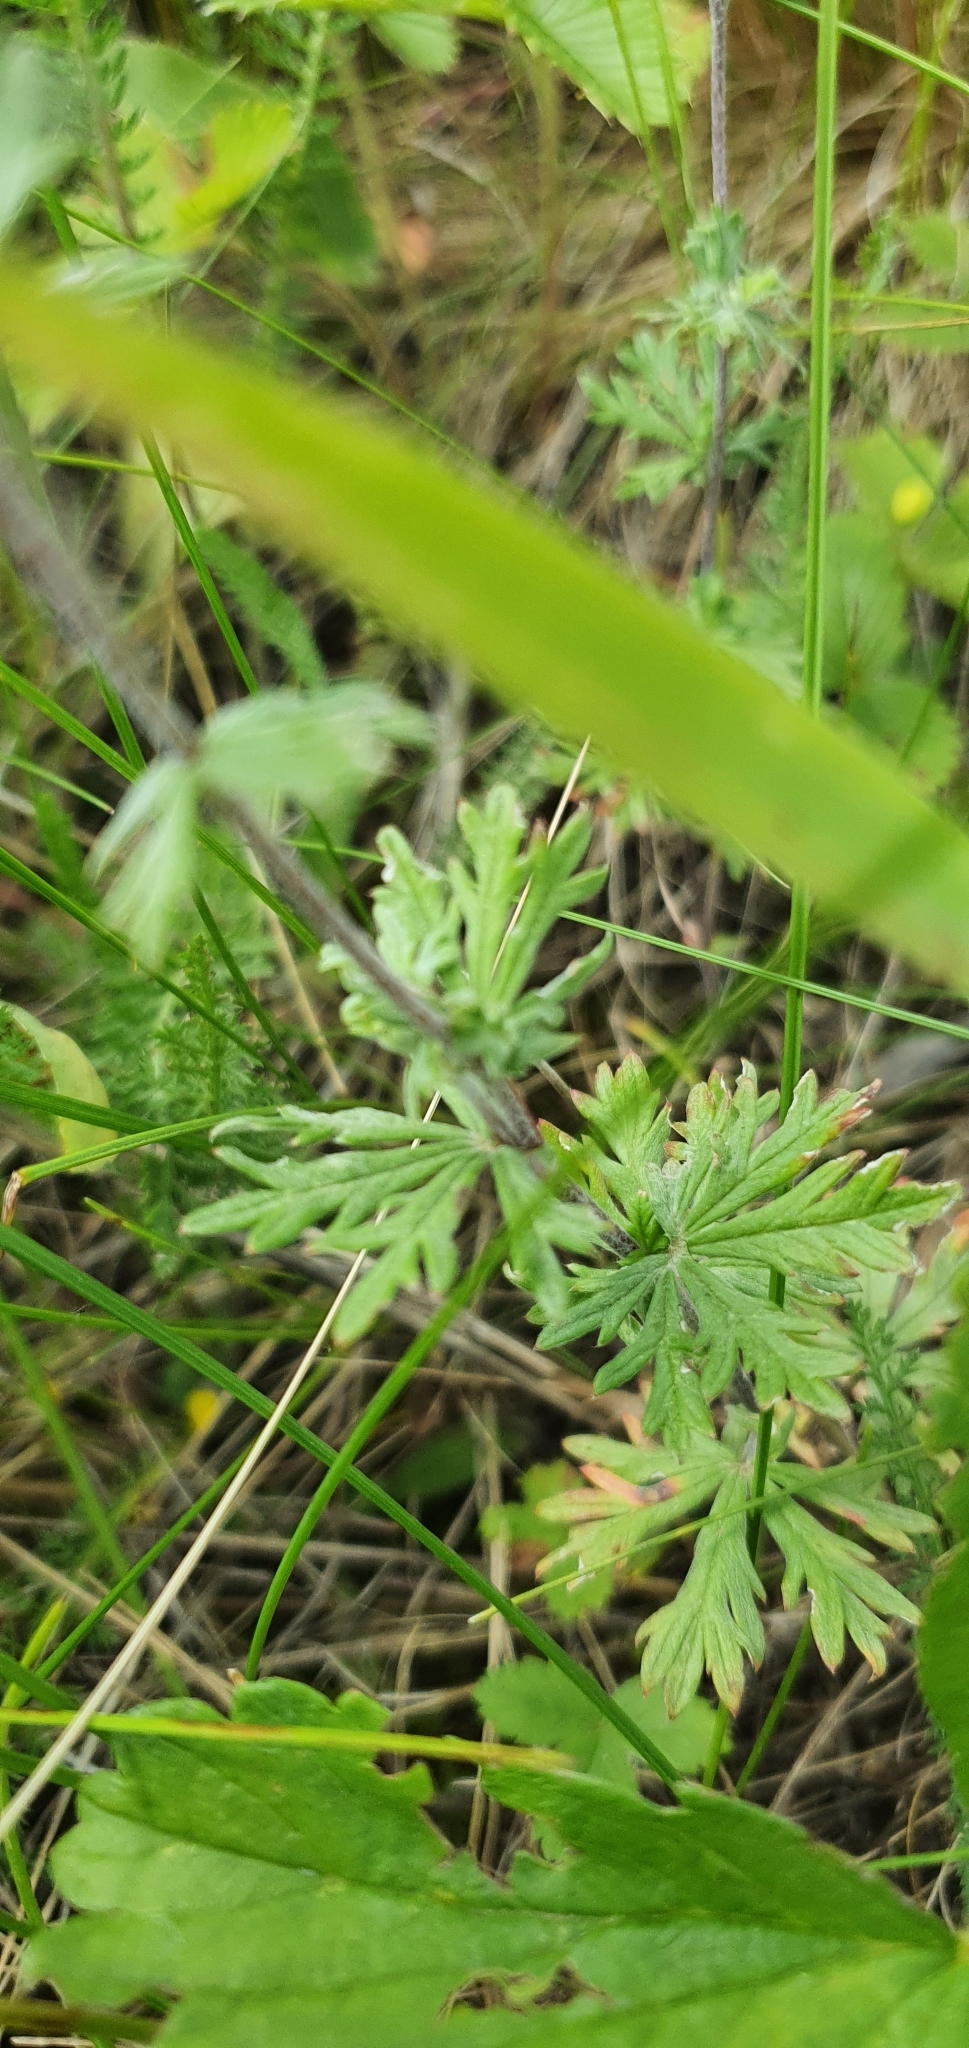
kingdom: Plantae
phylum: Tracheophyta
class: Magnoliopsida
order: Rosales
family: Rosaceae
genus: Potentilla
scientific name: Potentilla argentea
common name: Hoary cinquefoil
